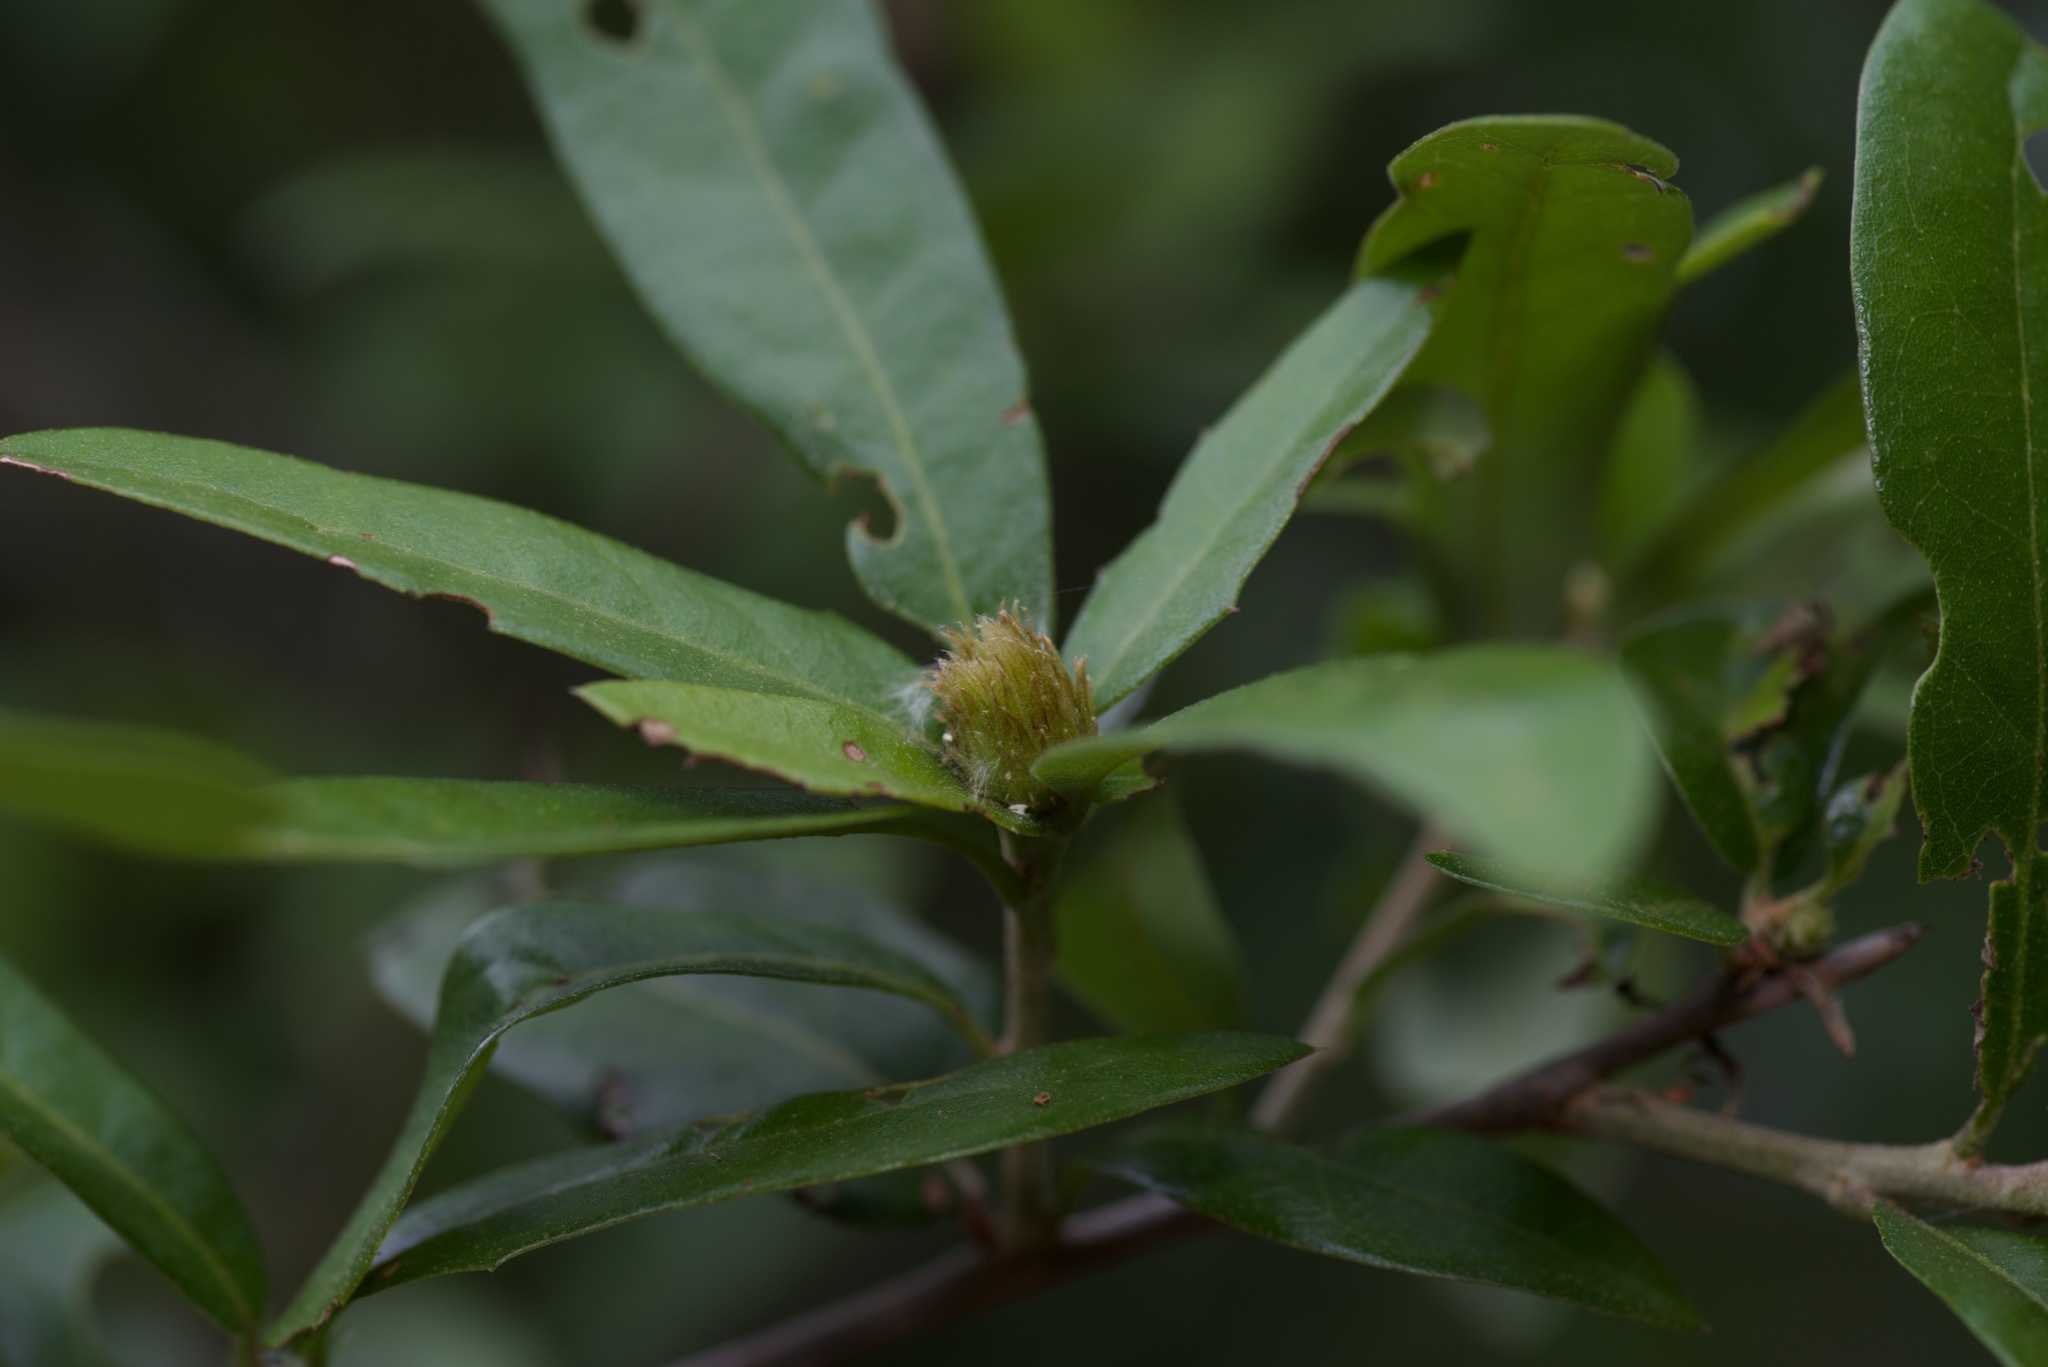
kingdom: Animalia
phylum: Arthropoda
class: Insecta
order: Hymenoptera
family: Cynipidae
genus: Andricus
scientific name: Andricus quercusfoliatus
